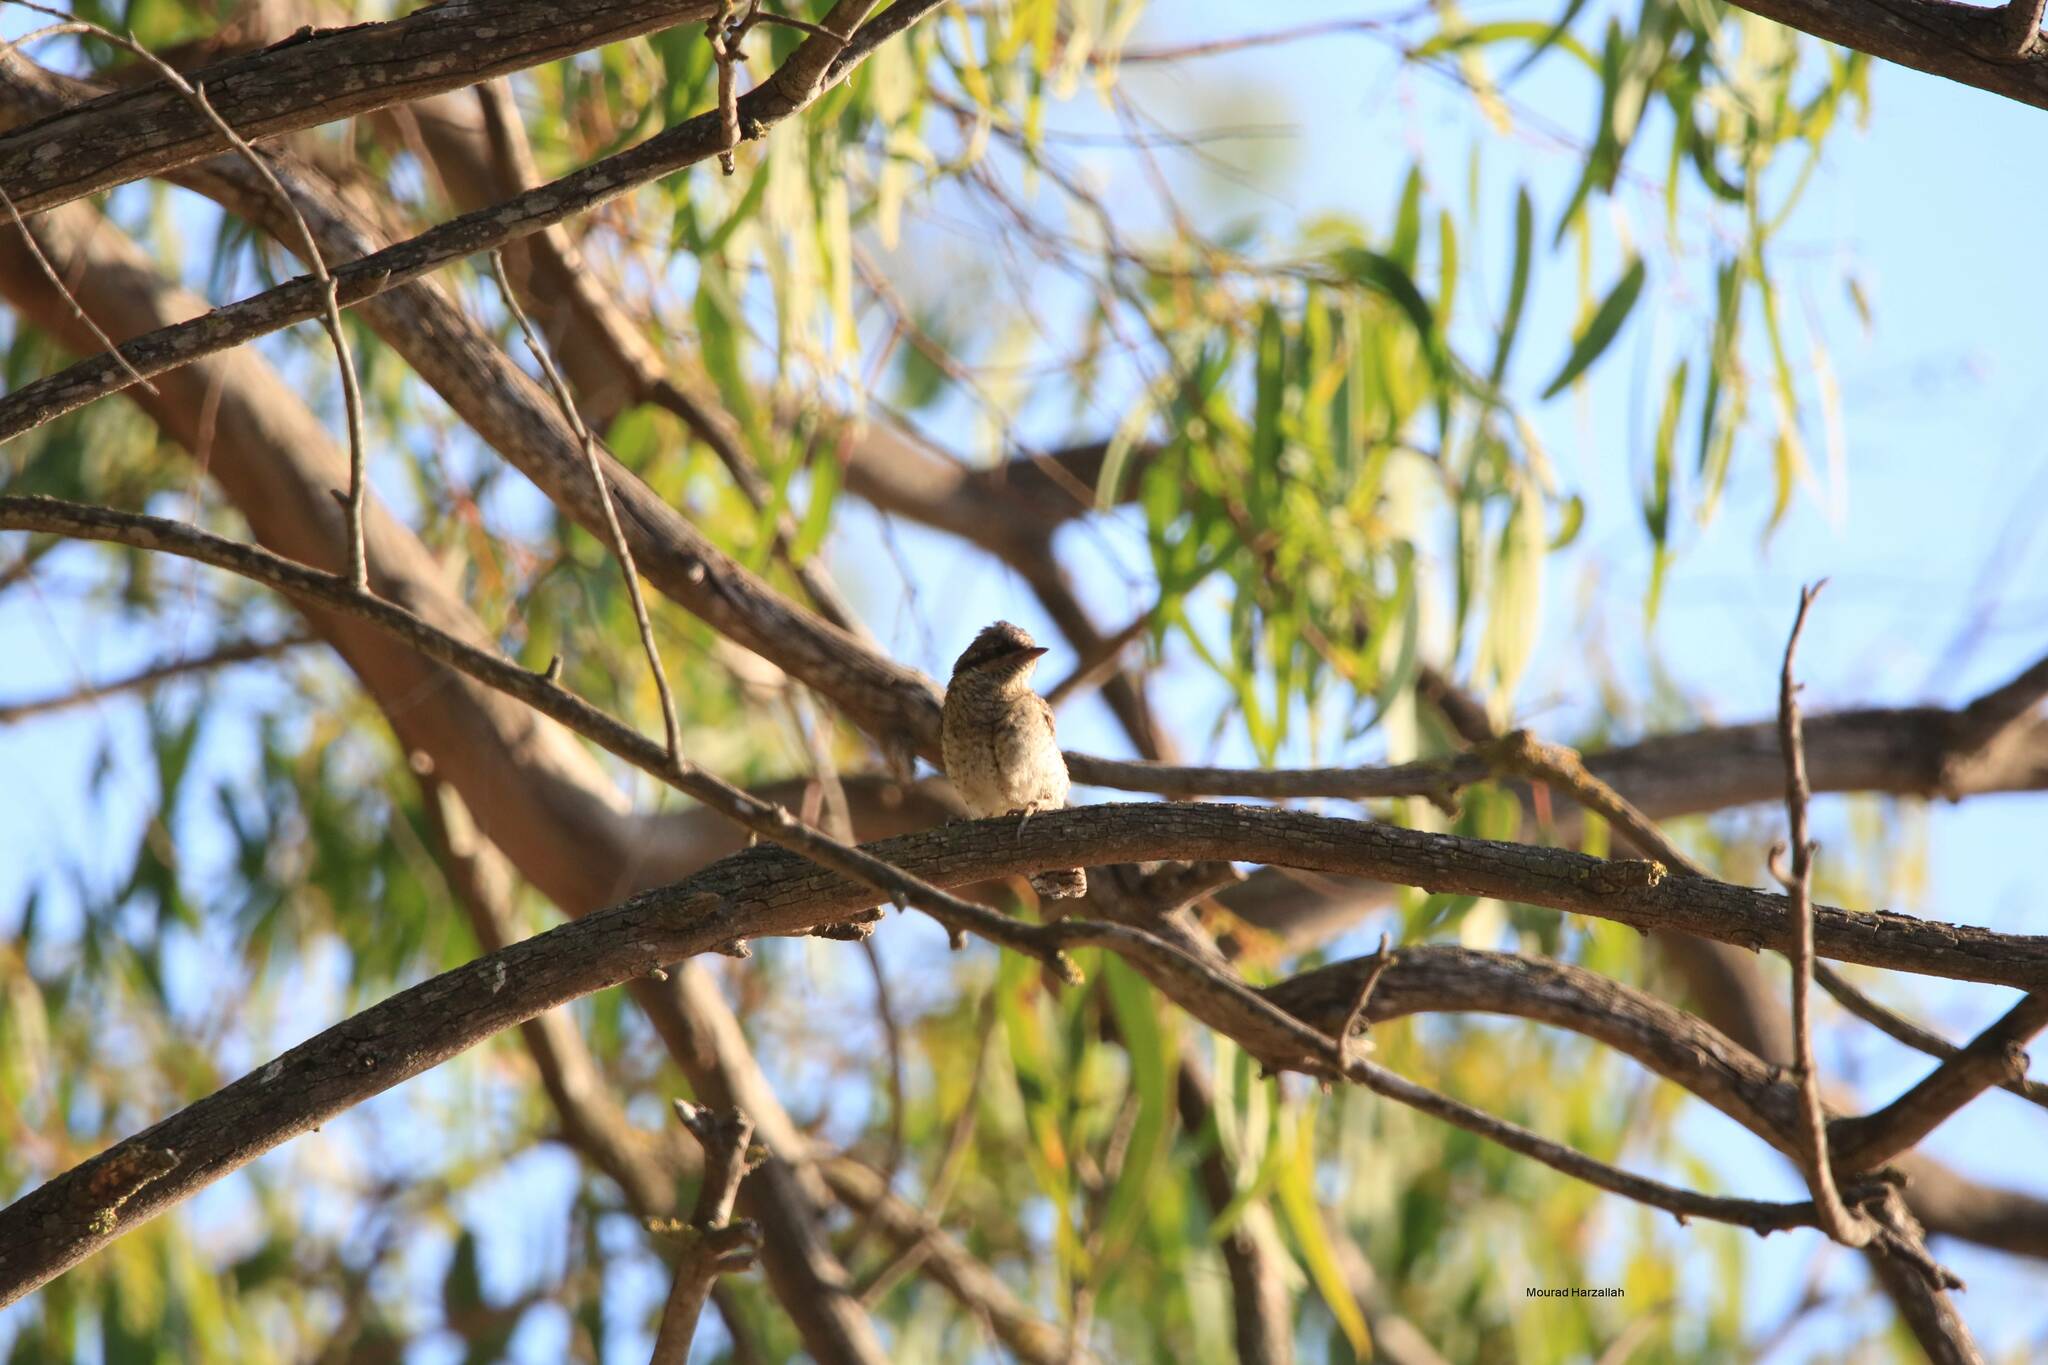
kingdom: Animalia
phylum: Chordata
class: Aves
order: Piciformes
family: Picidae
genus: Jynx
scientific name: Jynx torquilla
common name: Eurasian wryneck
